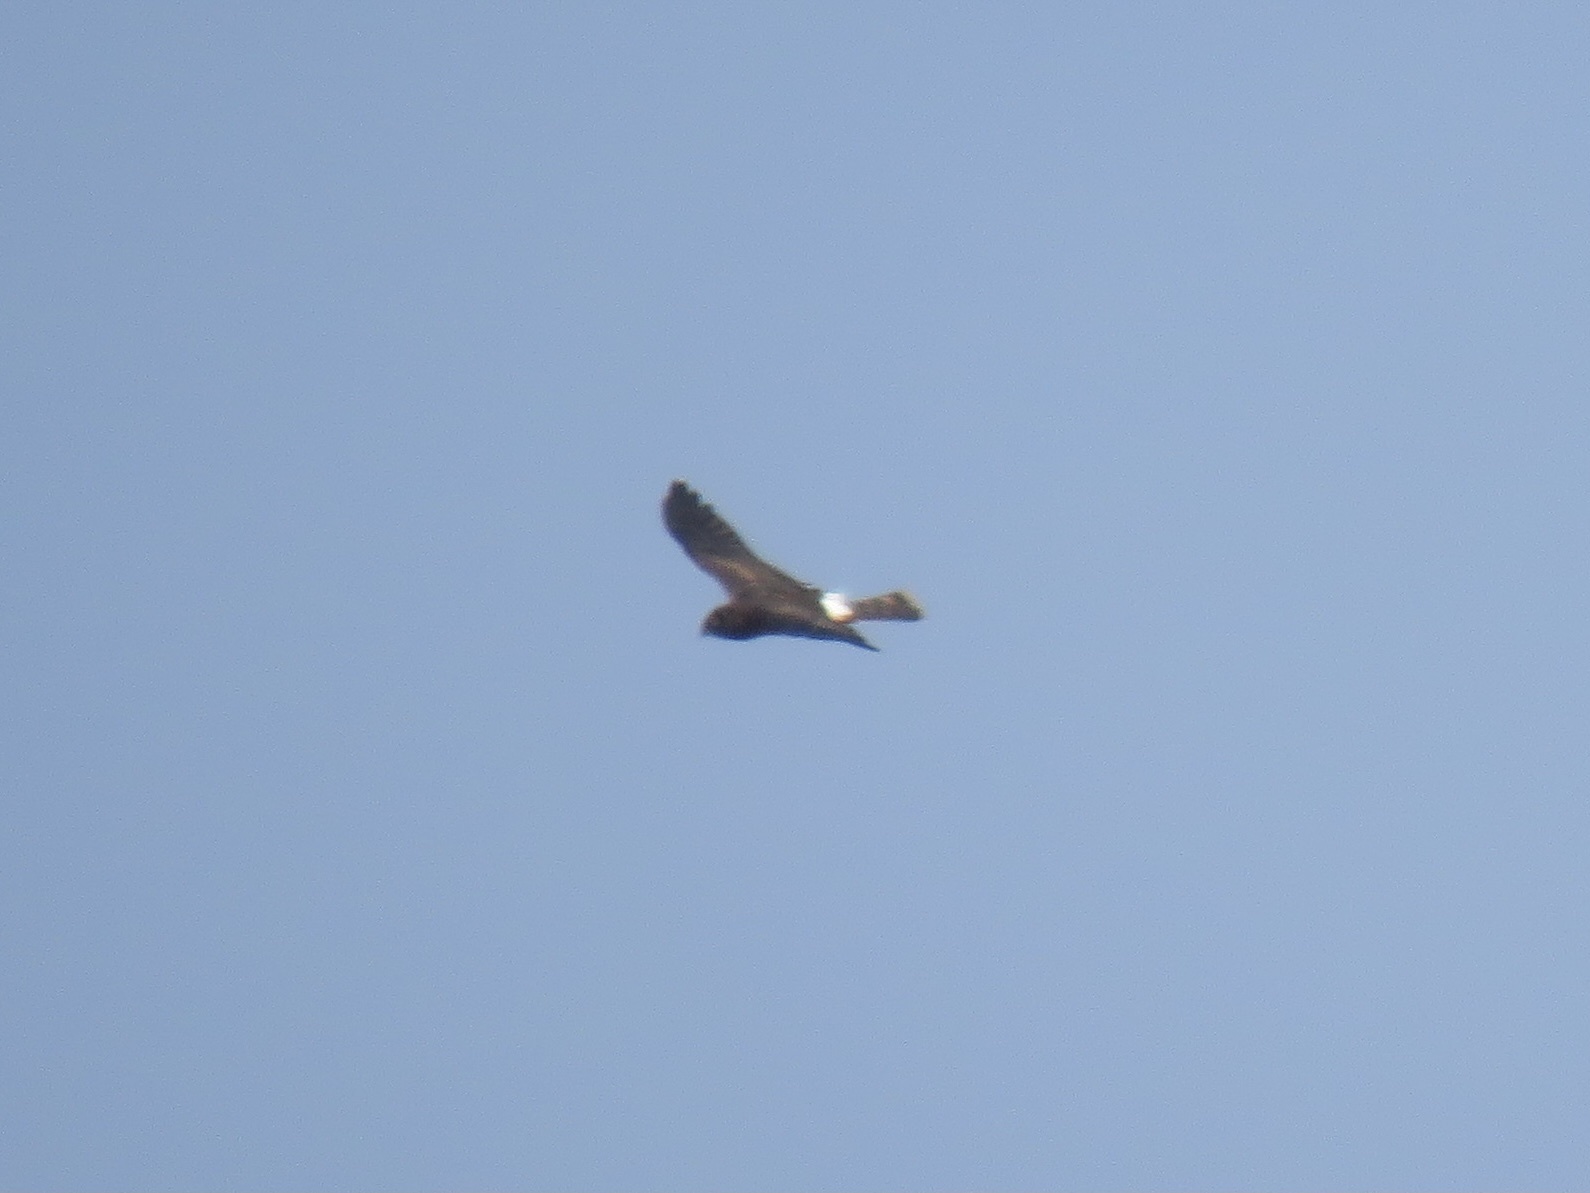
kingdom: Animalia
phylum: Chordata
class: Aves
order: Accipitriformes
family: Accipitridae
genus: Circus
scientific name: Circus cyaneus
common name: Hen harrier
